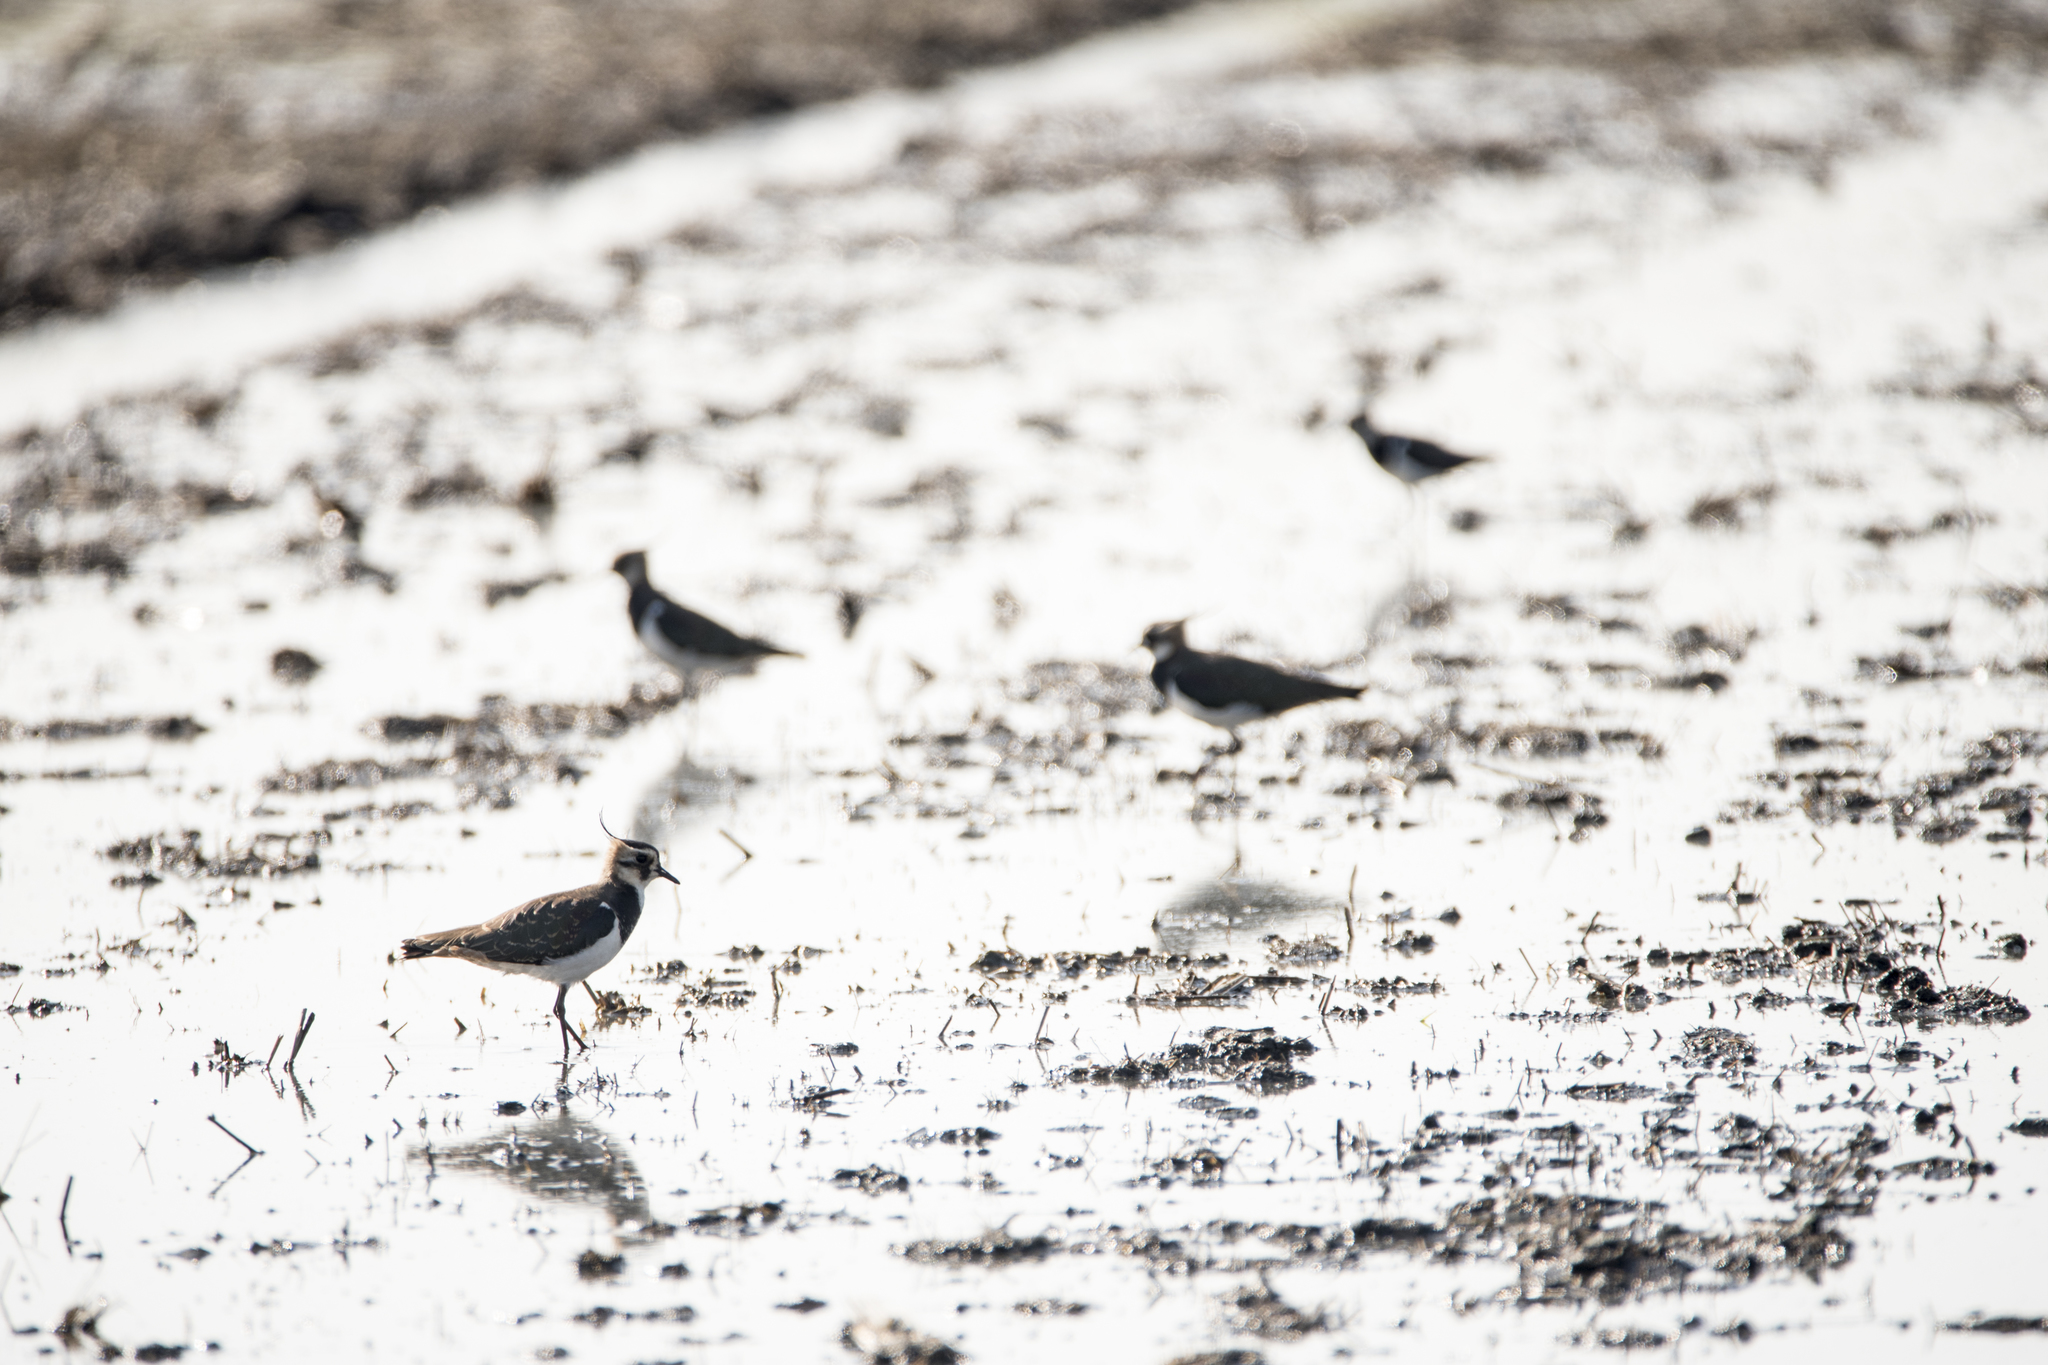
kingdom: Animalia
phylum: Chordata
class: Aves
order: Charadriiformes
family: Charadriidae
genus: Vanellus
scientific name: Vanellus vanellus
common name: Northern lapwing
